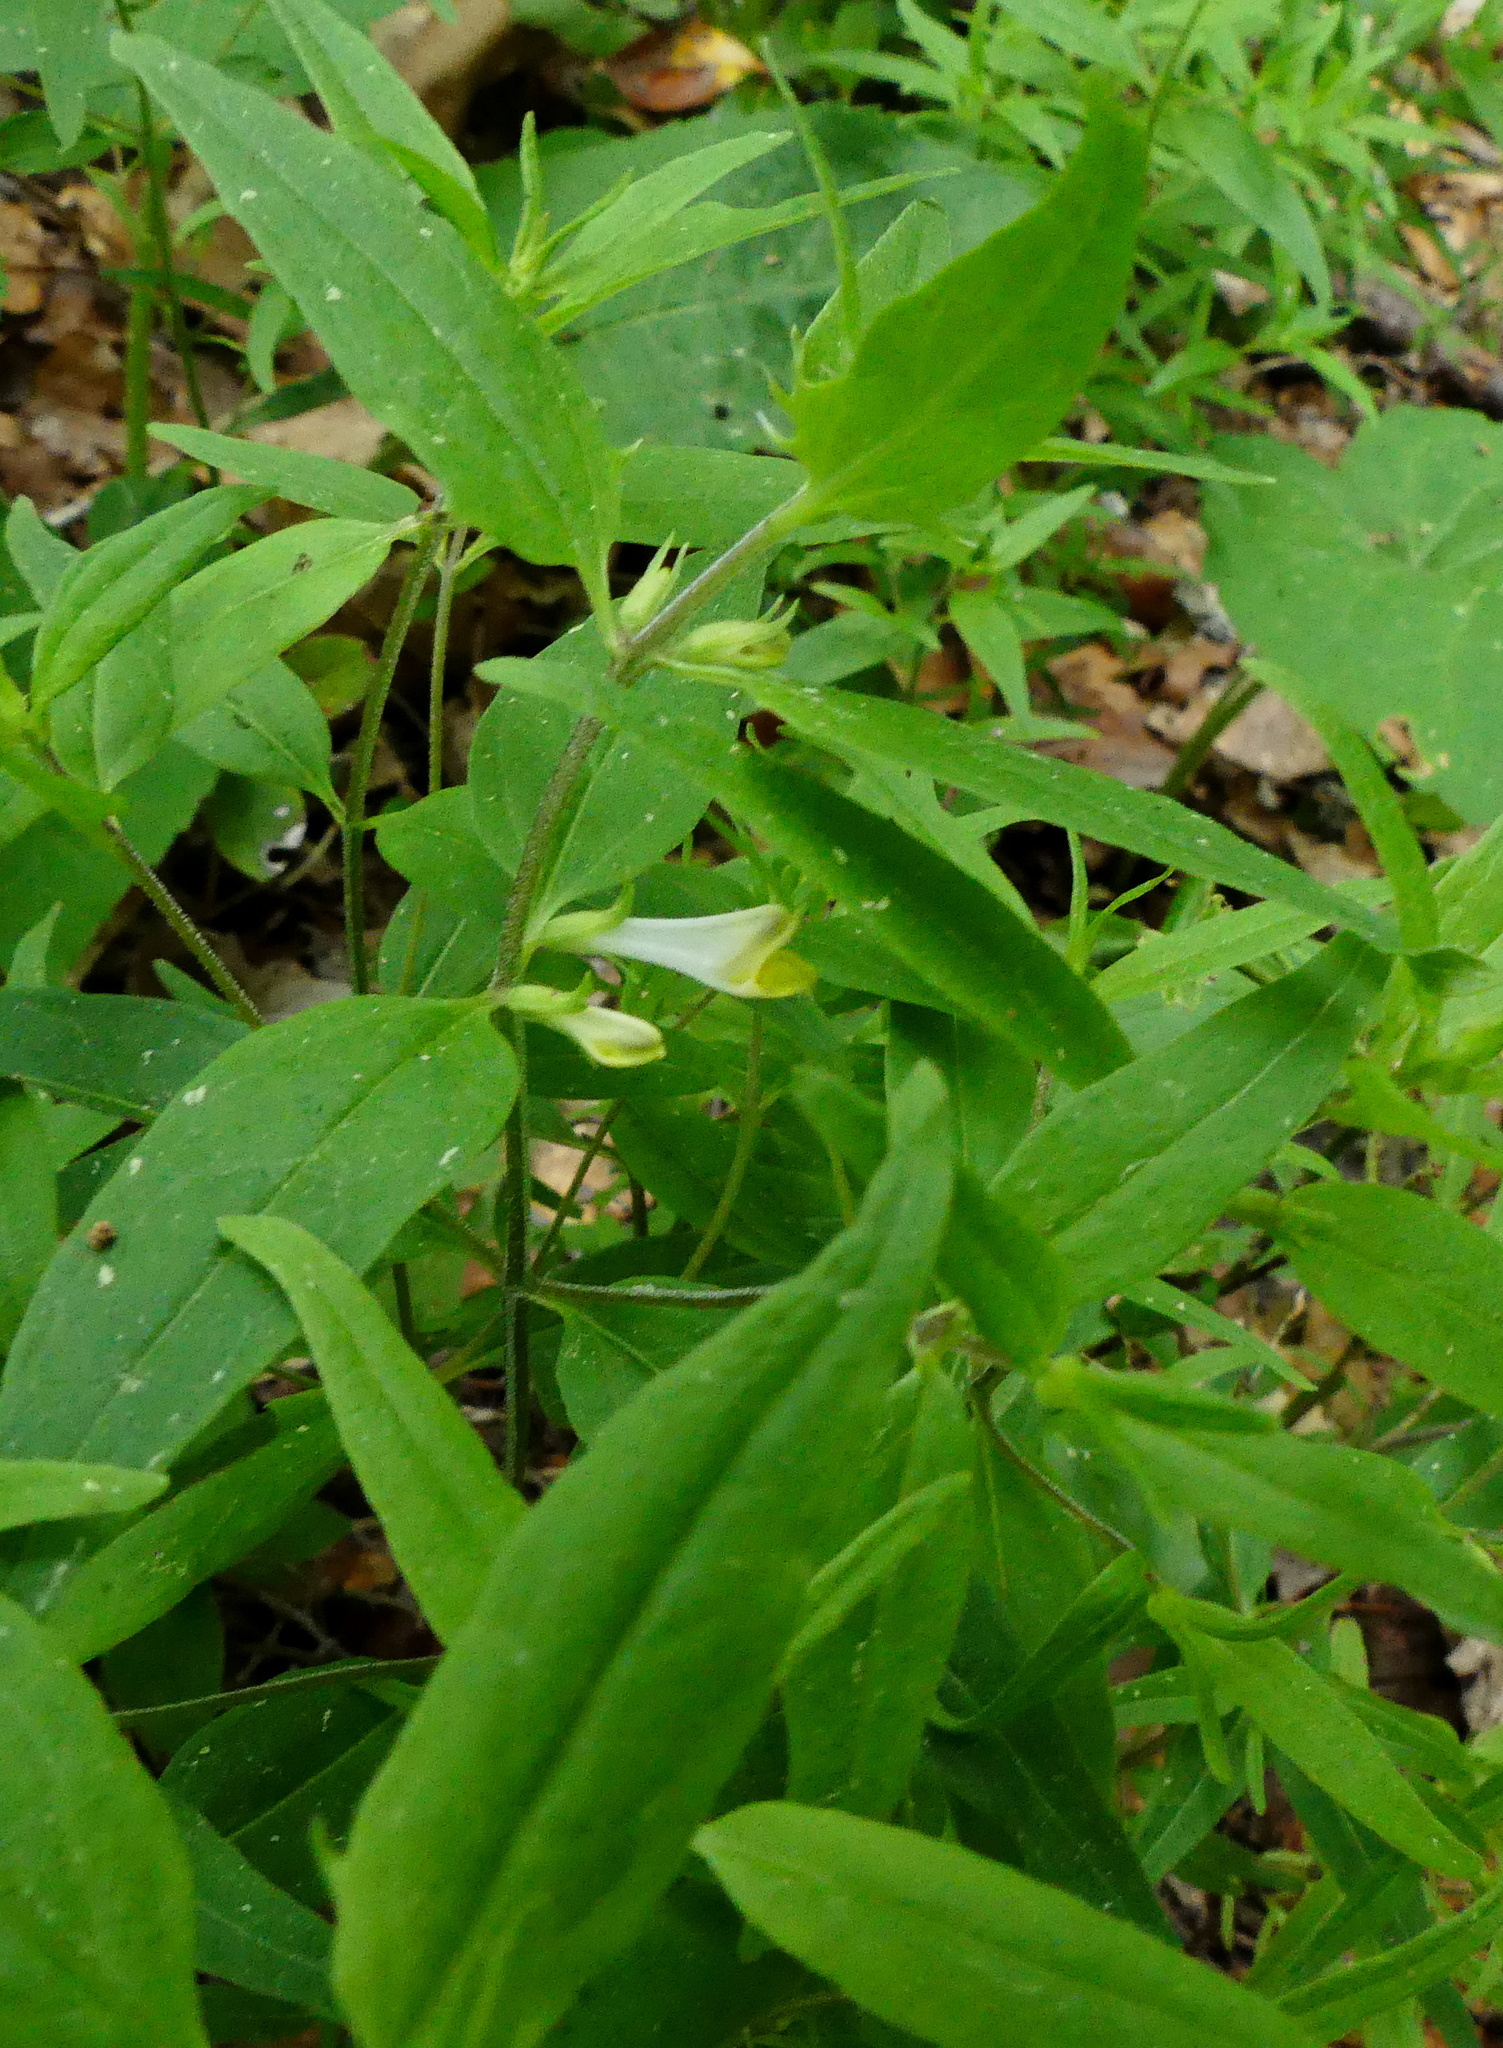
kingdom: Plantae
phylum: Tracheophyta
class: Magnoliopsida
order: Lamiales
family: Orobanchaceae
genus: Melampyrum
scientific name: Melampyrum lineare
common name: American cow-wheat
